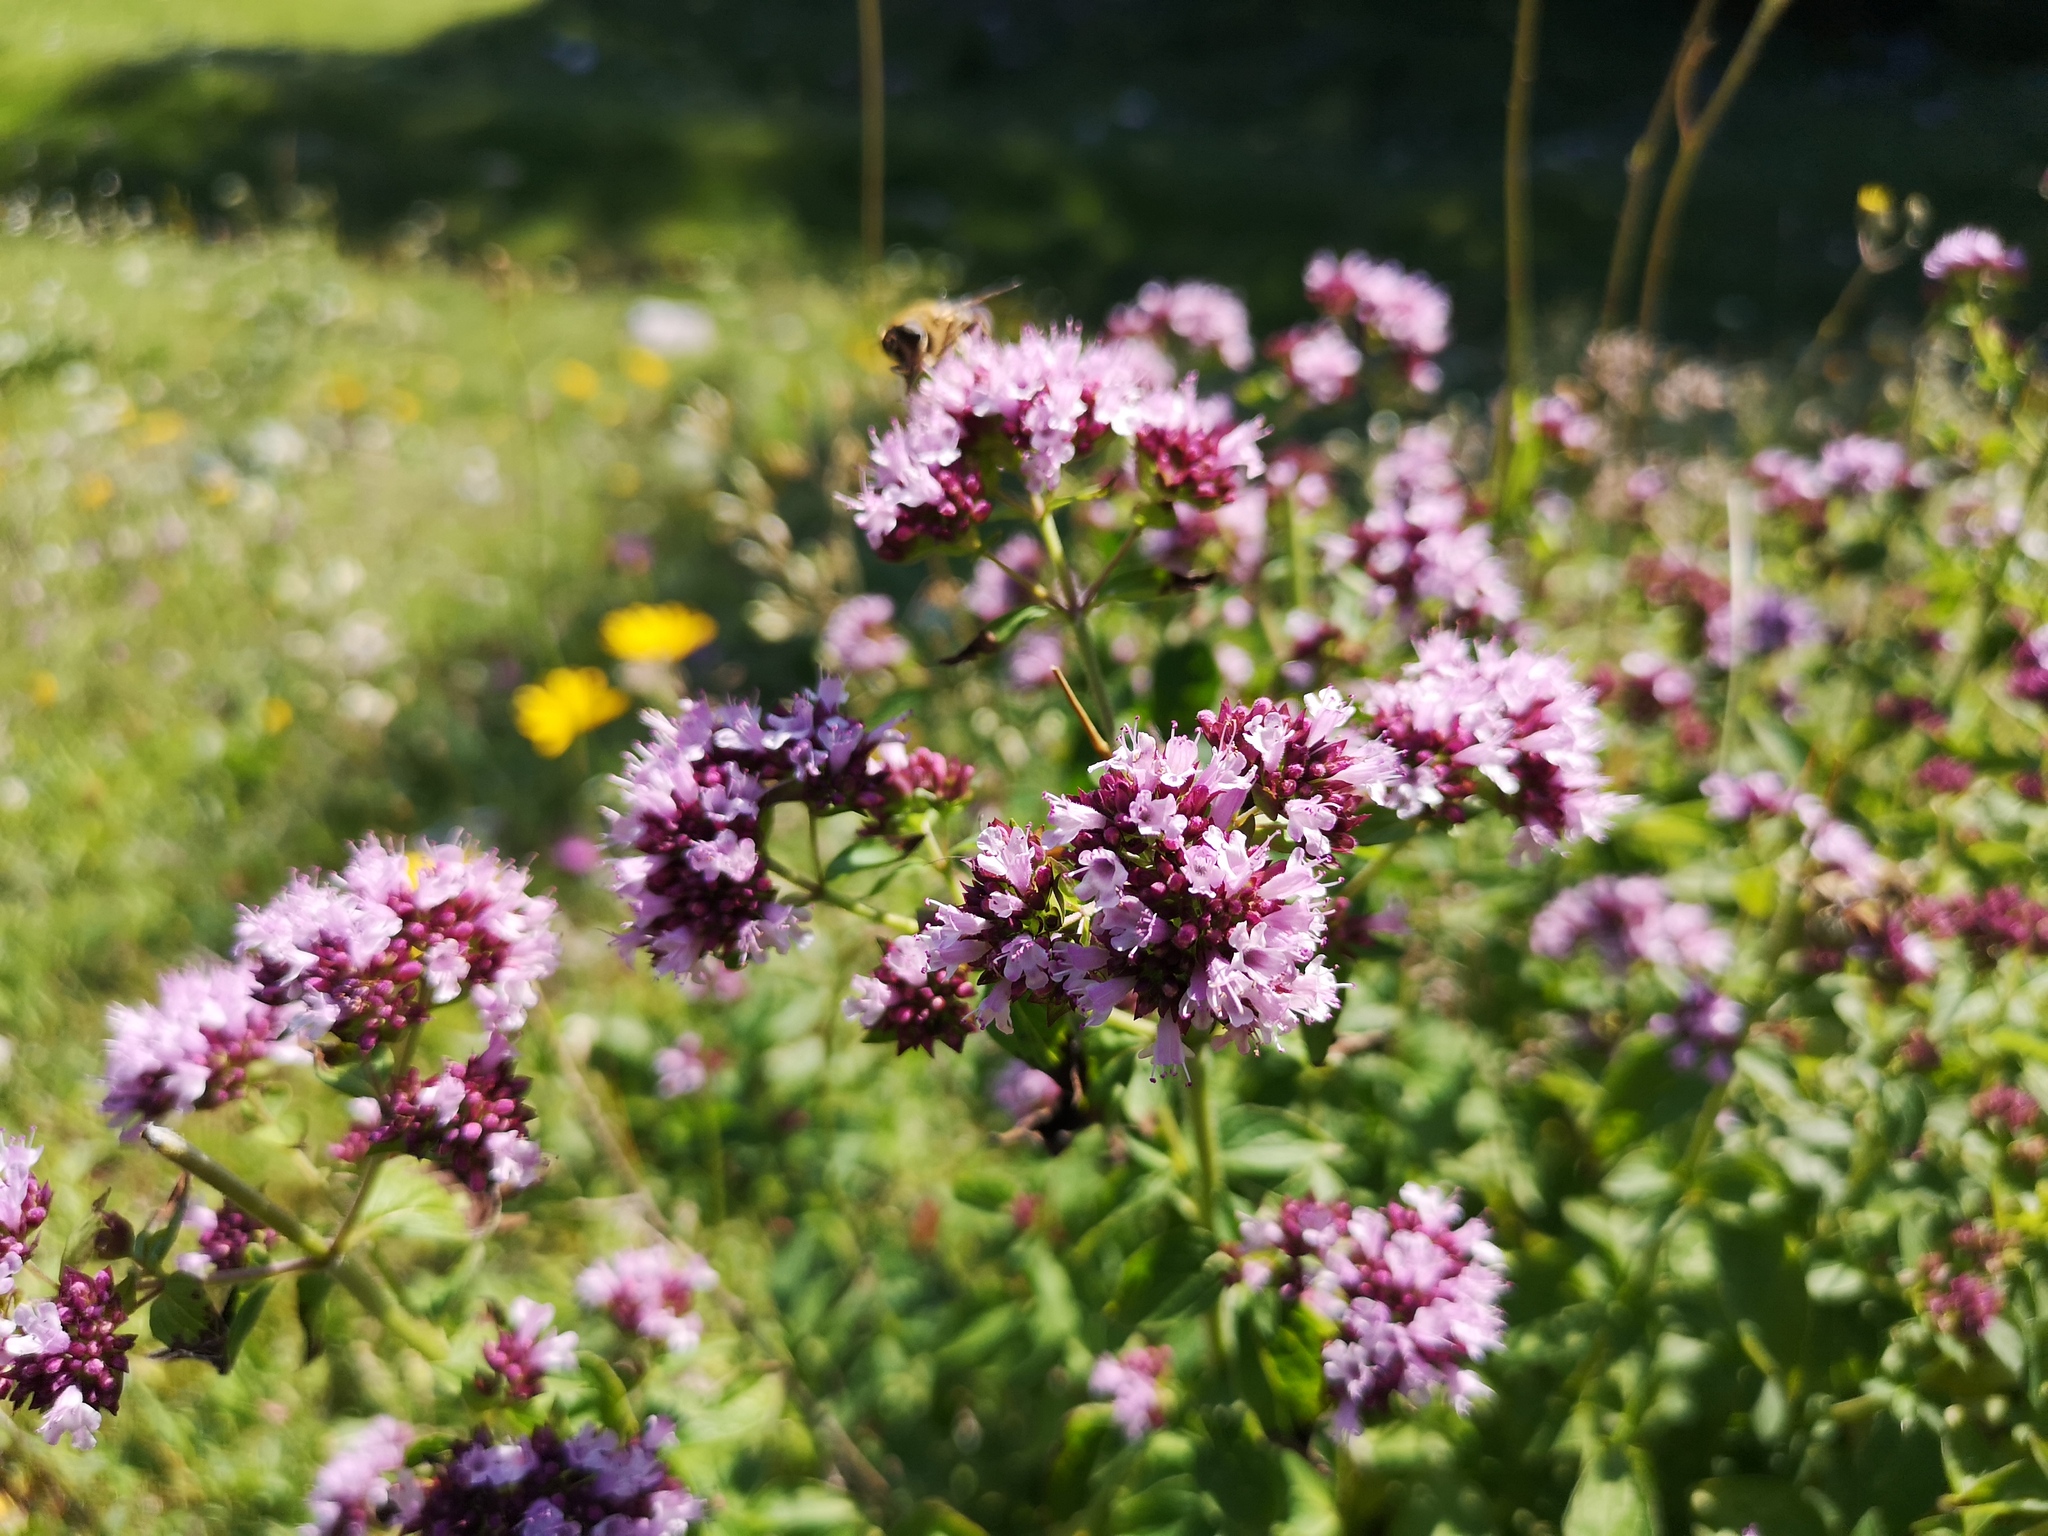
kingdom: Plantae
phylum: Tracheophyta
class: Magnoliopsida
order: Lamiales
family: Lamiaceae
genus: Origanum
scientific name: Origanum vulgare
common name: Wild marjoram
